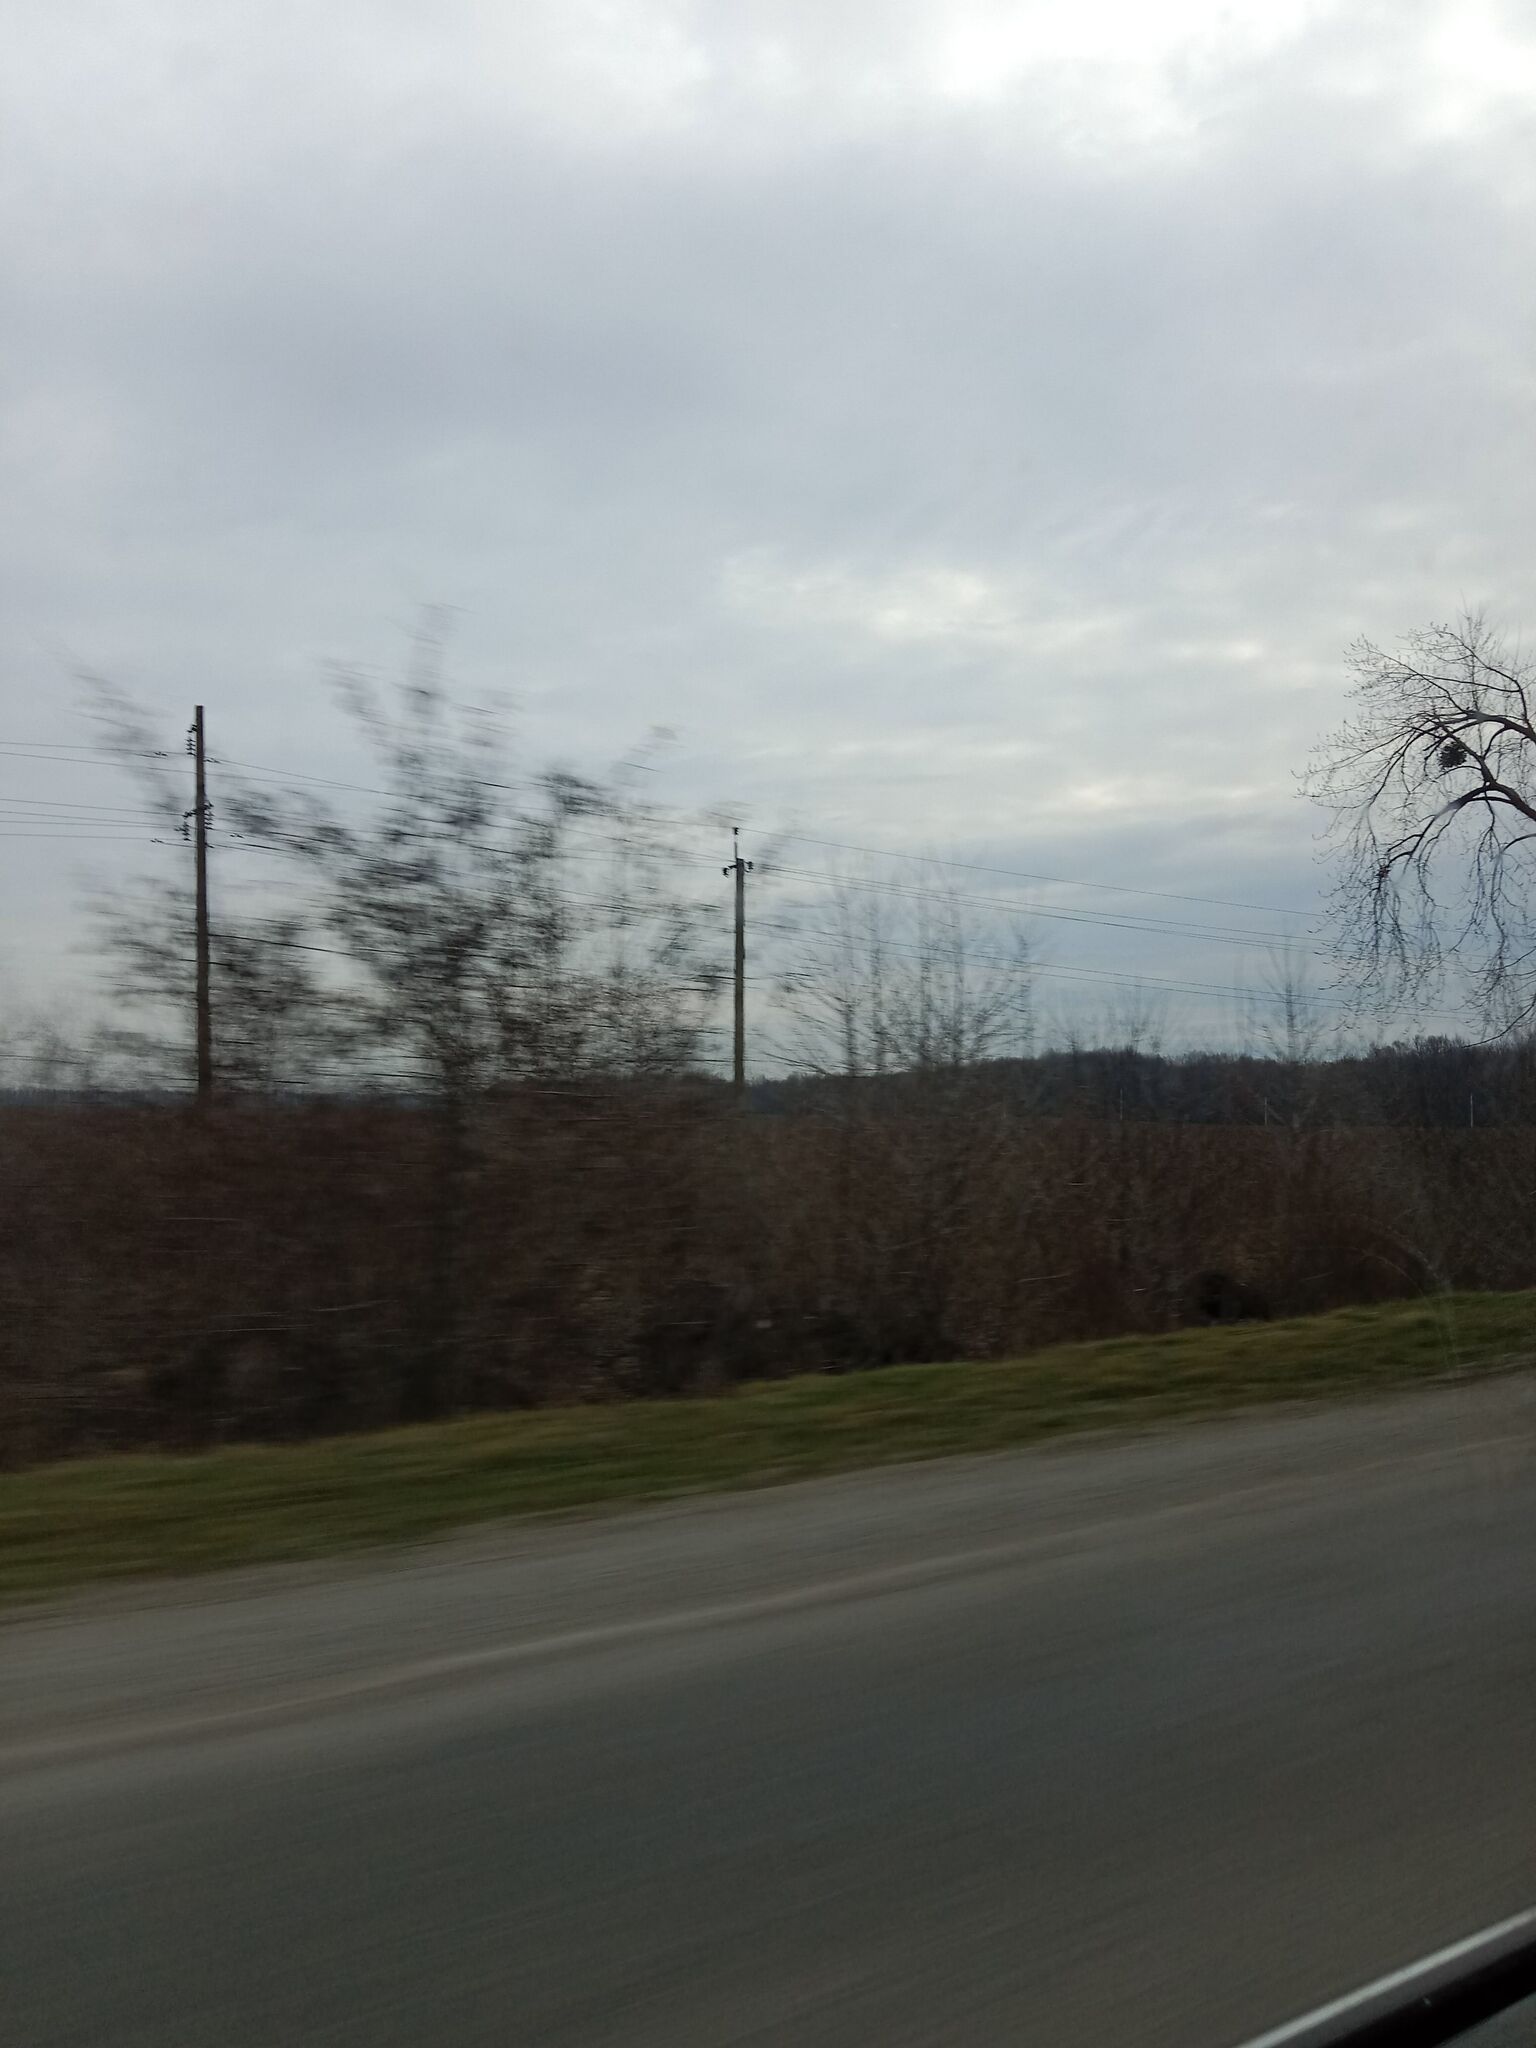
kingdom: Plantae
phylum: Tracheophyta
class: Magnoliopsida
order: Santalales
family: Viscaceae
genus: Viscum
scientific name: Viscum album
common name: Mistletoe
